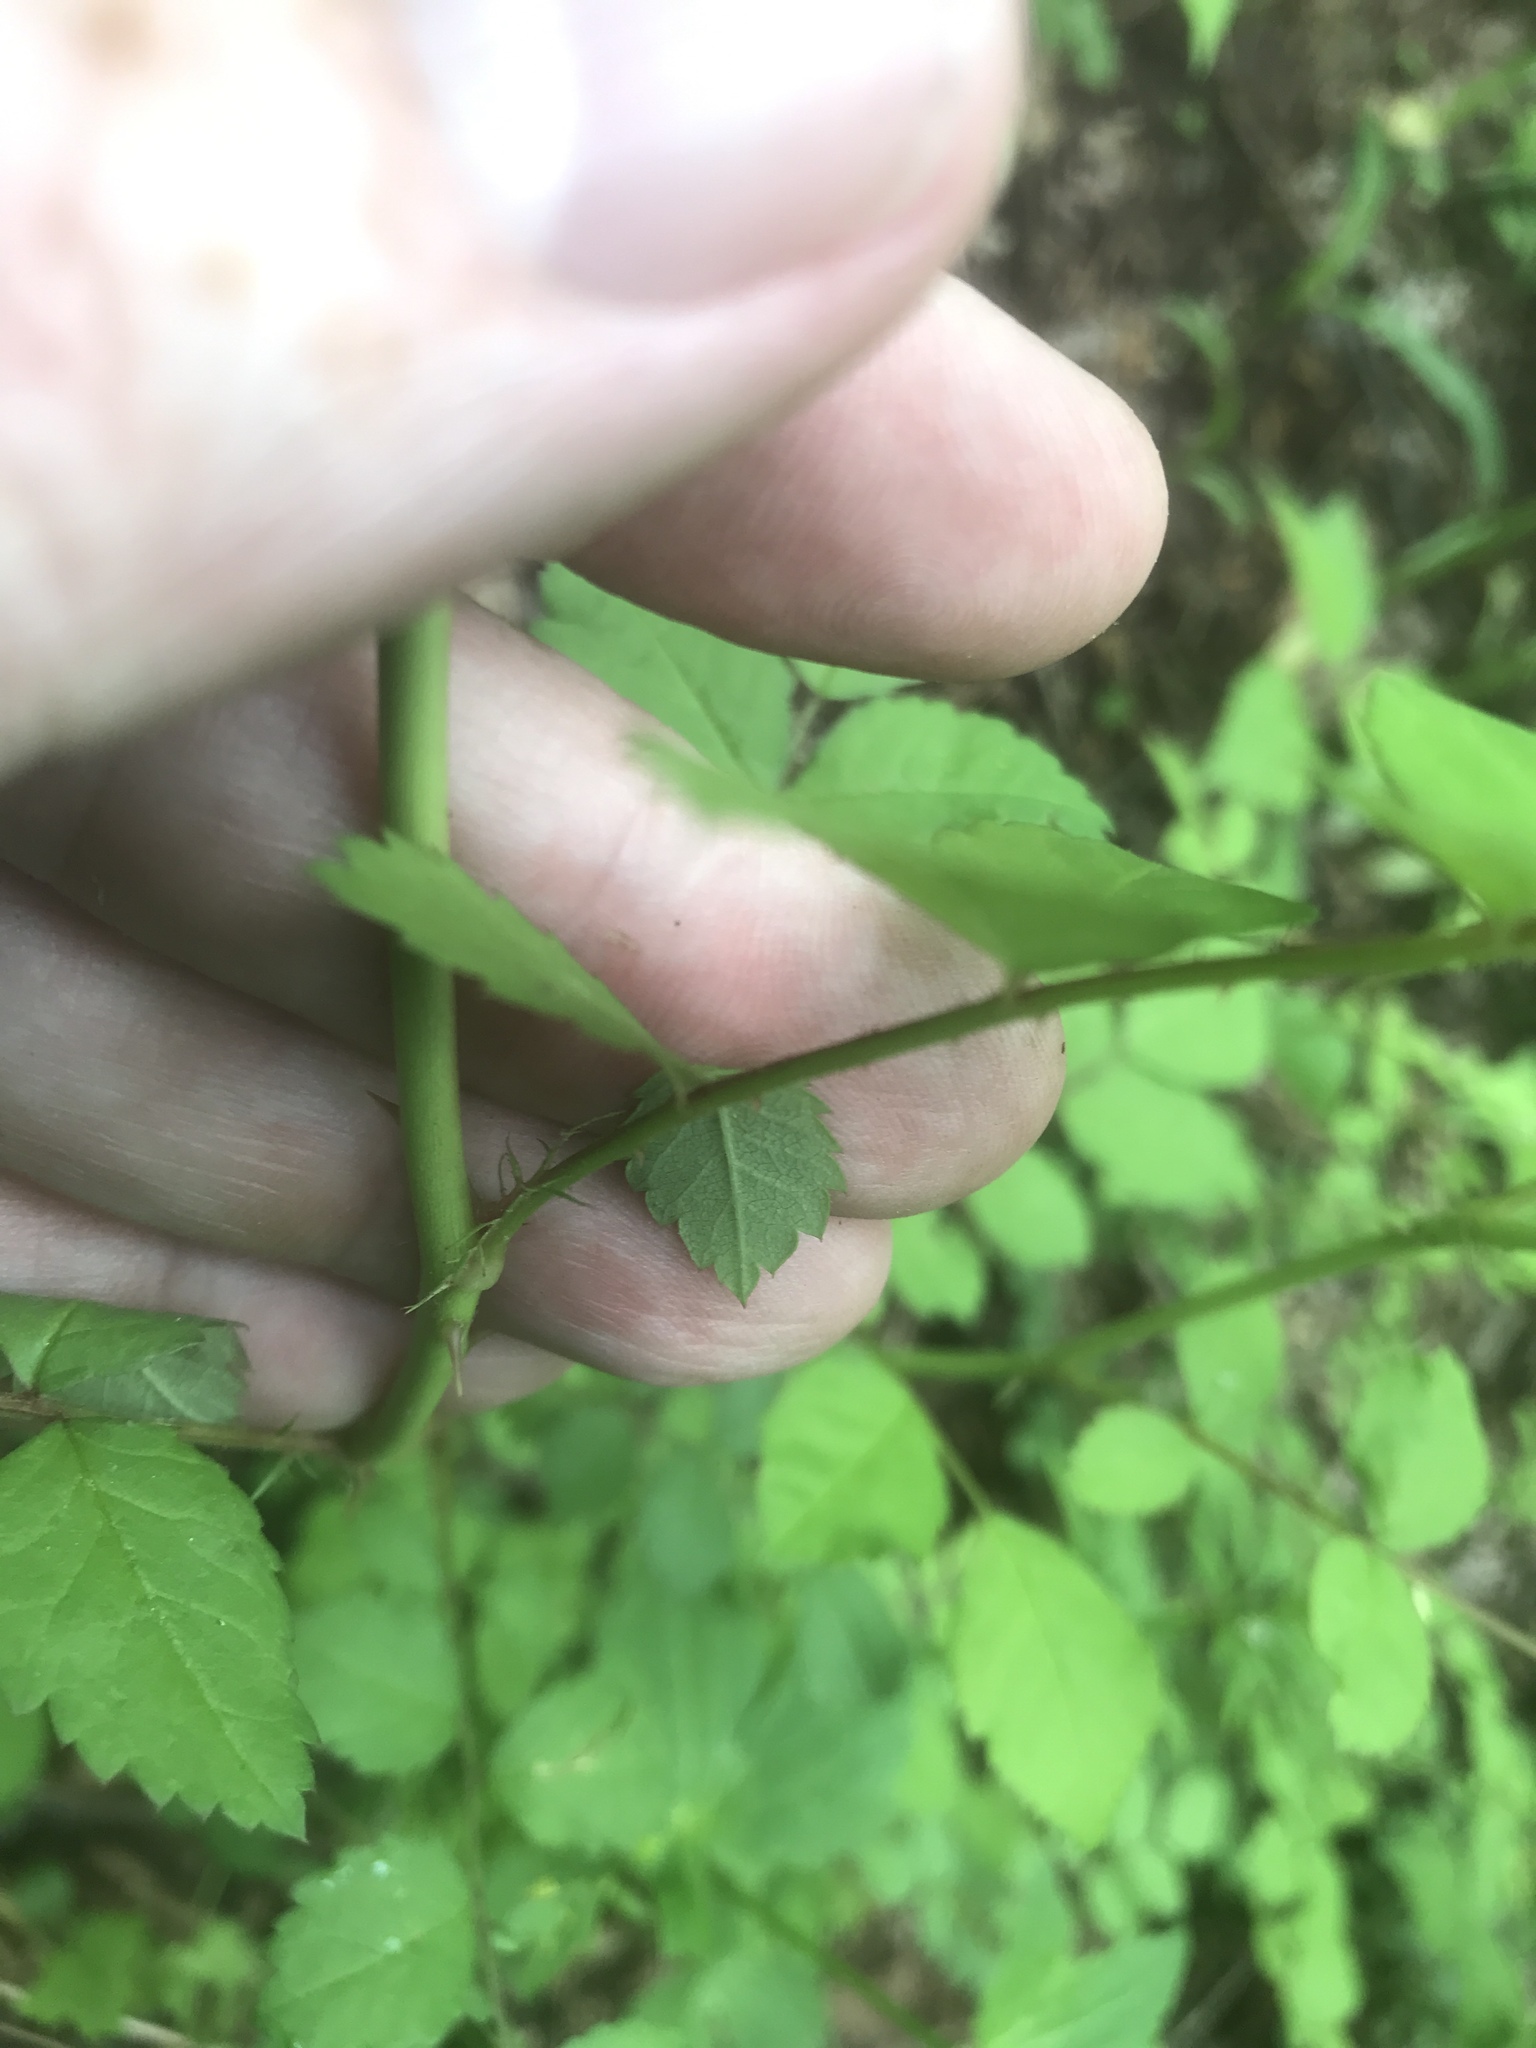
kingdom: Plantae
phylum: Tracheophyta
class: Magnoliopsida
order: Rosales
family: Rosaceae
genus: Rosa
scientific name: Rosa multiflora
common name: Multiflora rose
